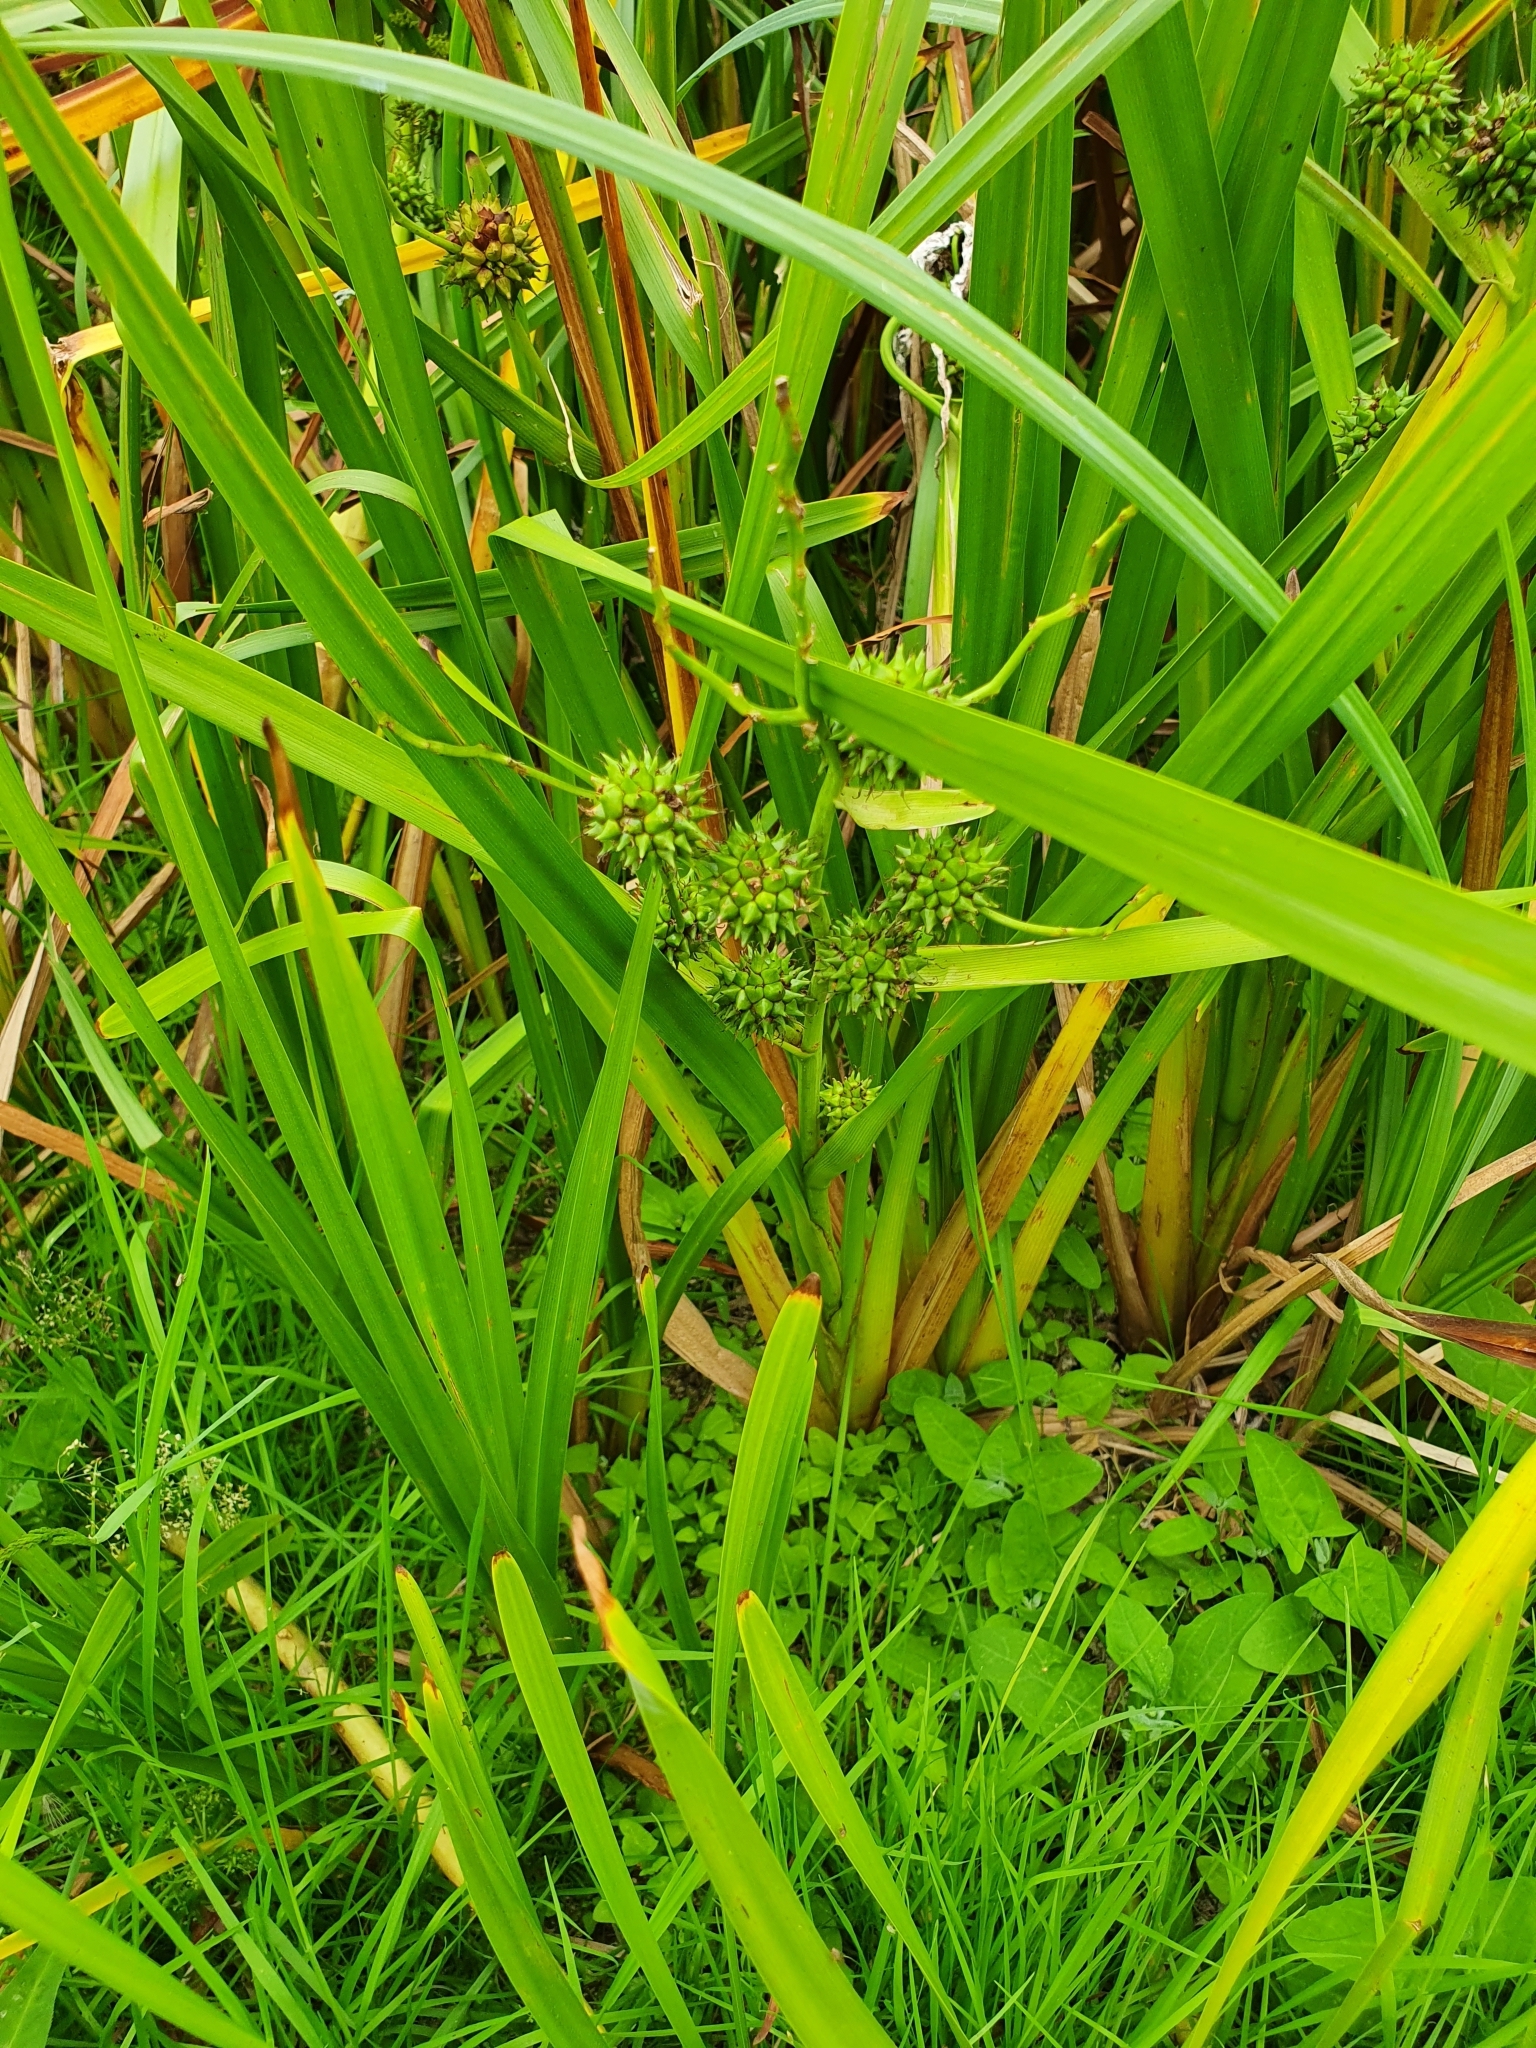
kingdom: Plantae
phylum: Tracheophyta
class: Liliopsida
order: Poales
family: Typhaceae
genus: Sparganium
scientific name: Sparganium erectum
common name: Branched bur-reed
